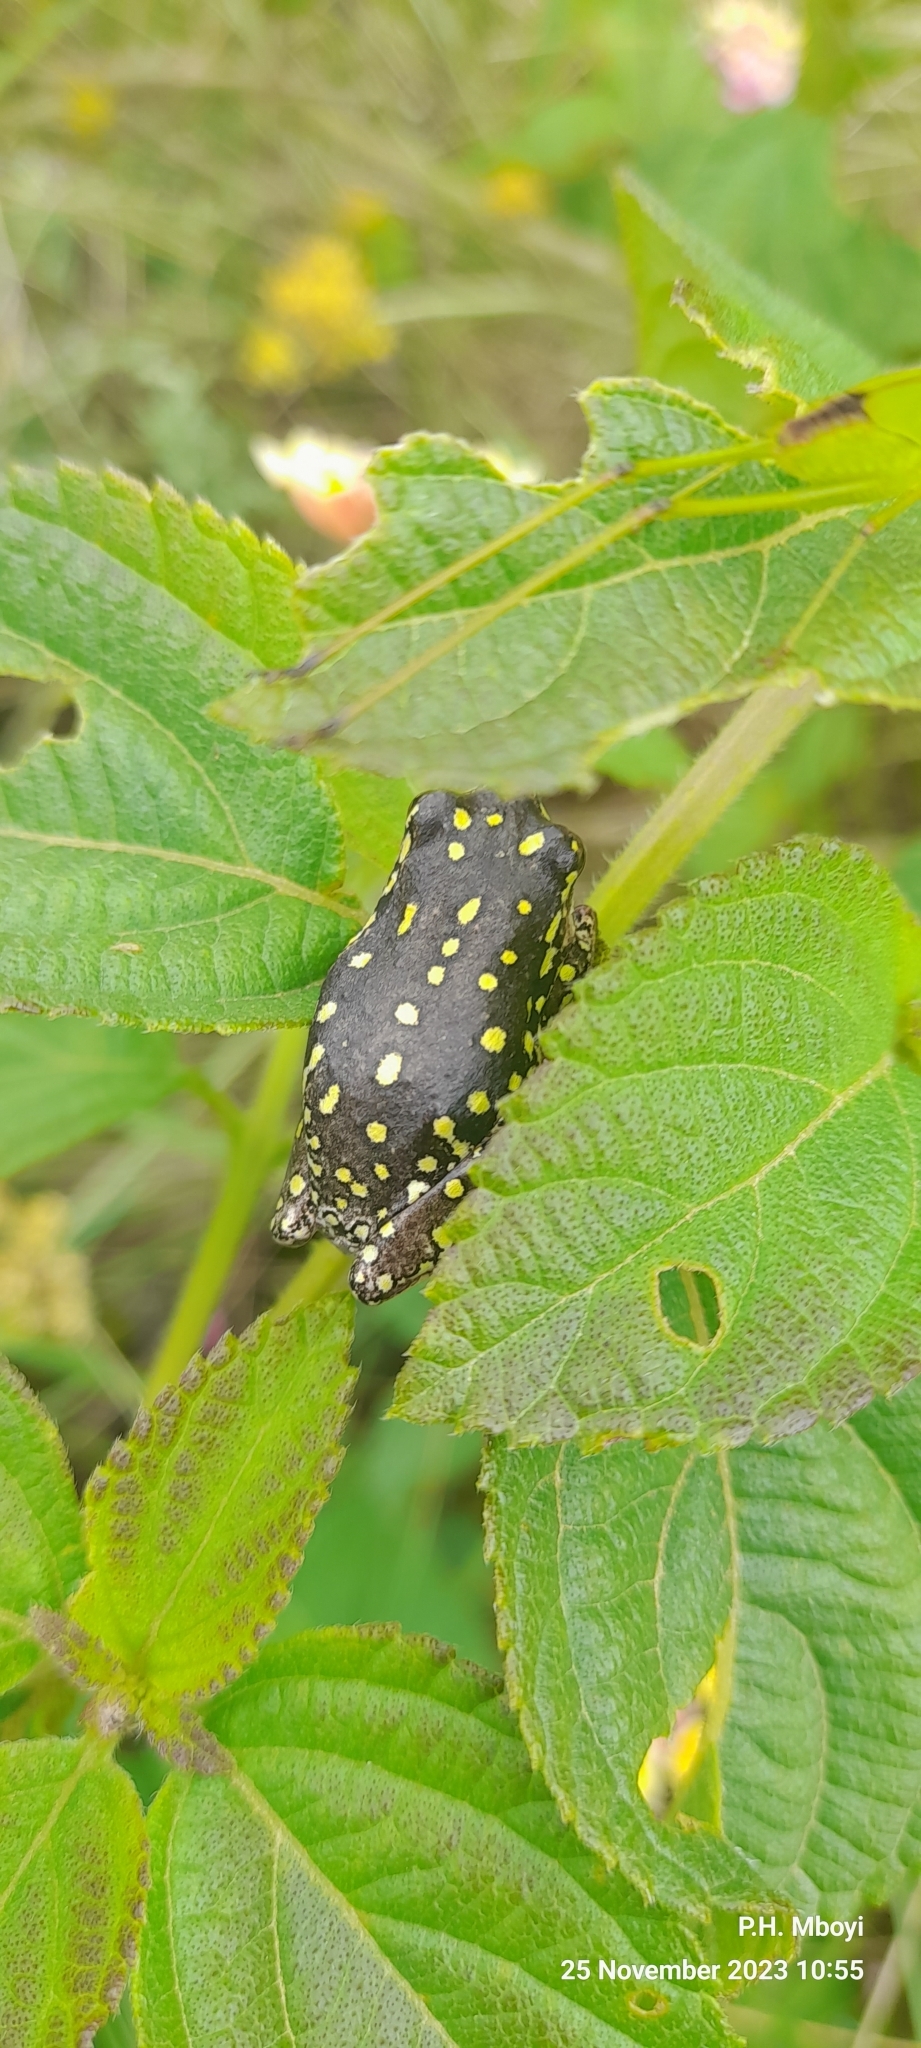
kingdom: Animalia
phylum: Chordata
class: Amphibia
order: Anura
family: Hyperoliidae
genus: Hyperolius
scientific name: Hyperolius marmoratus
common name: Painted reed frog
